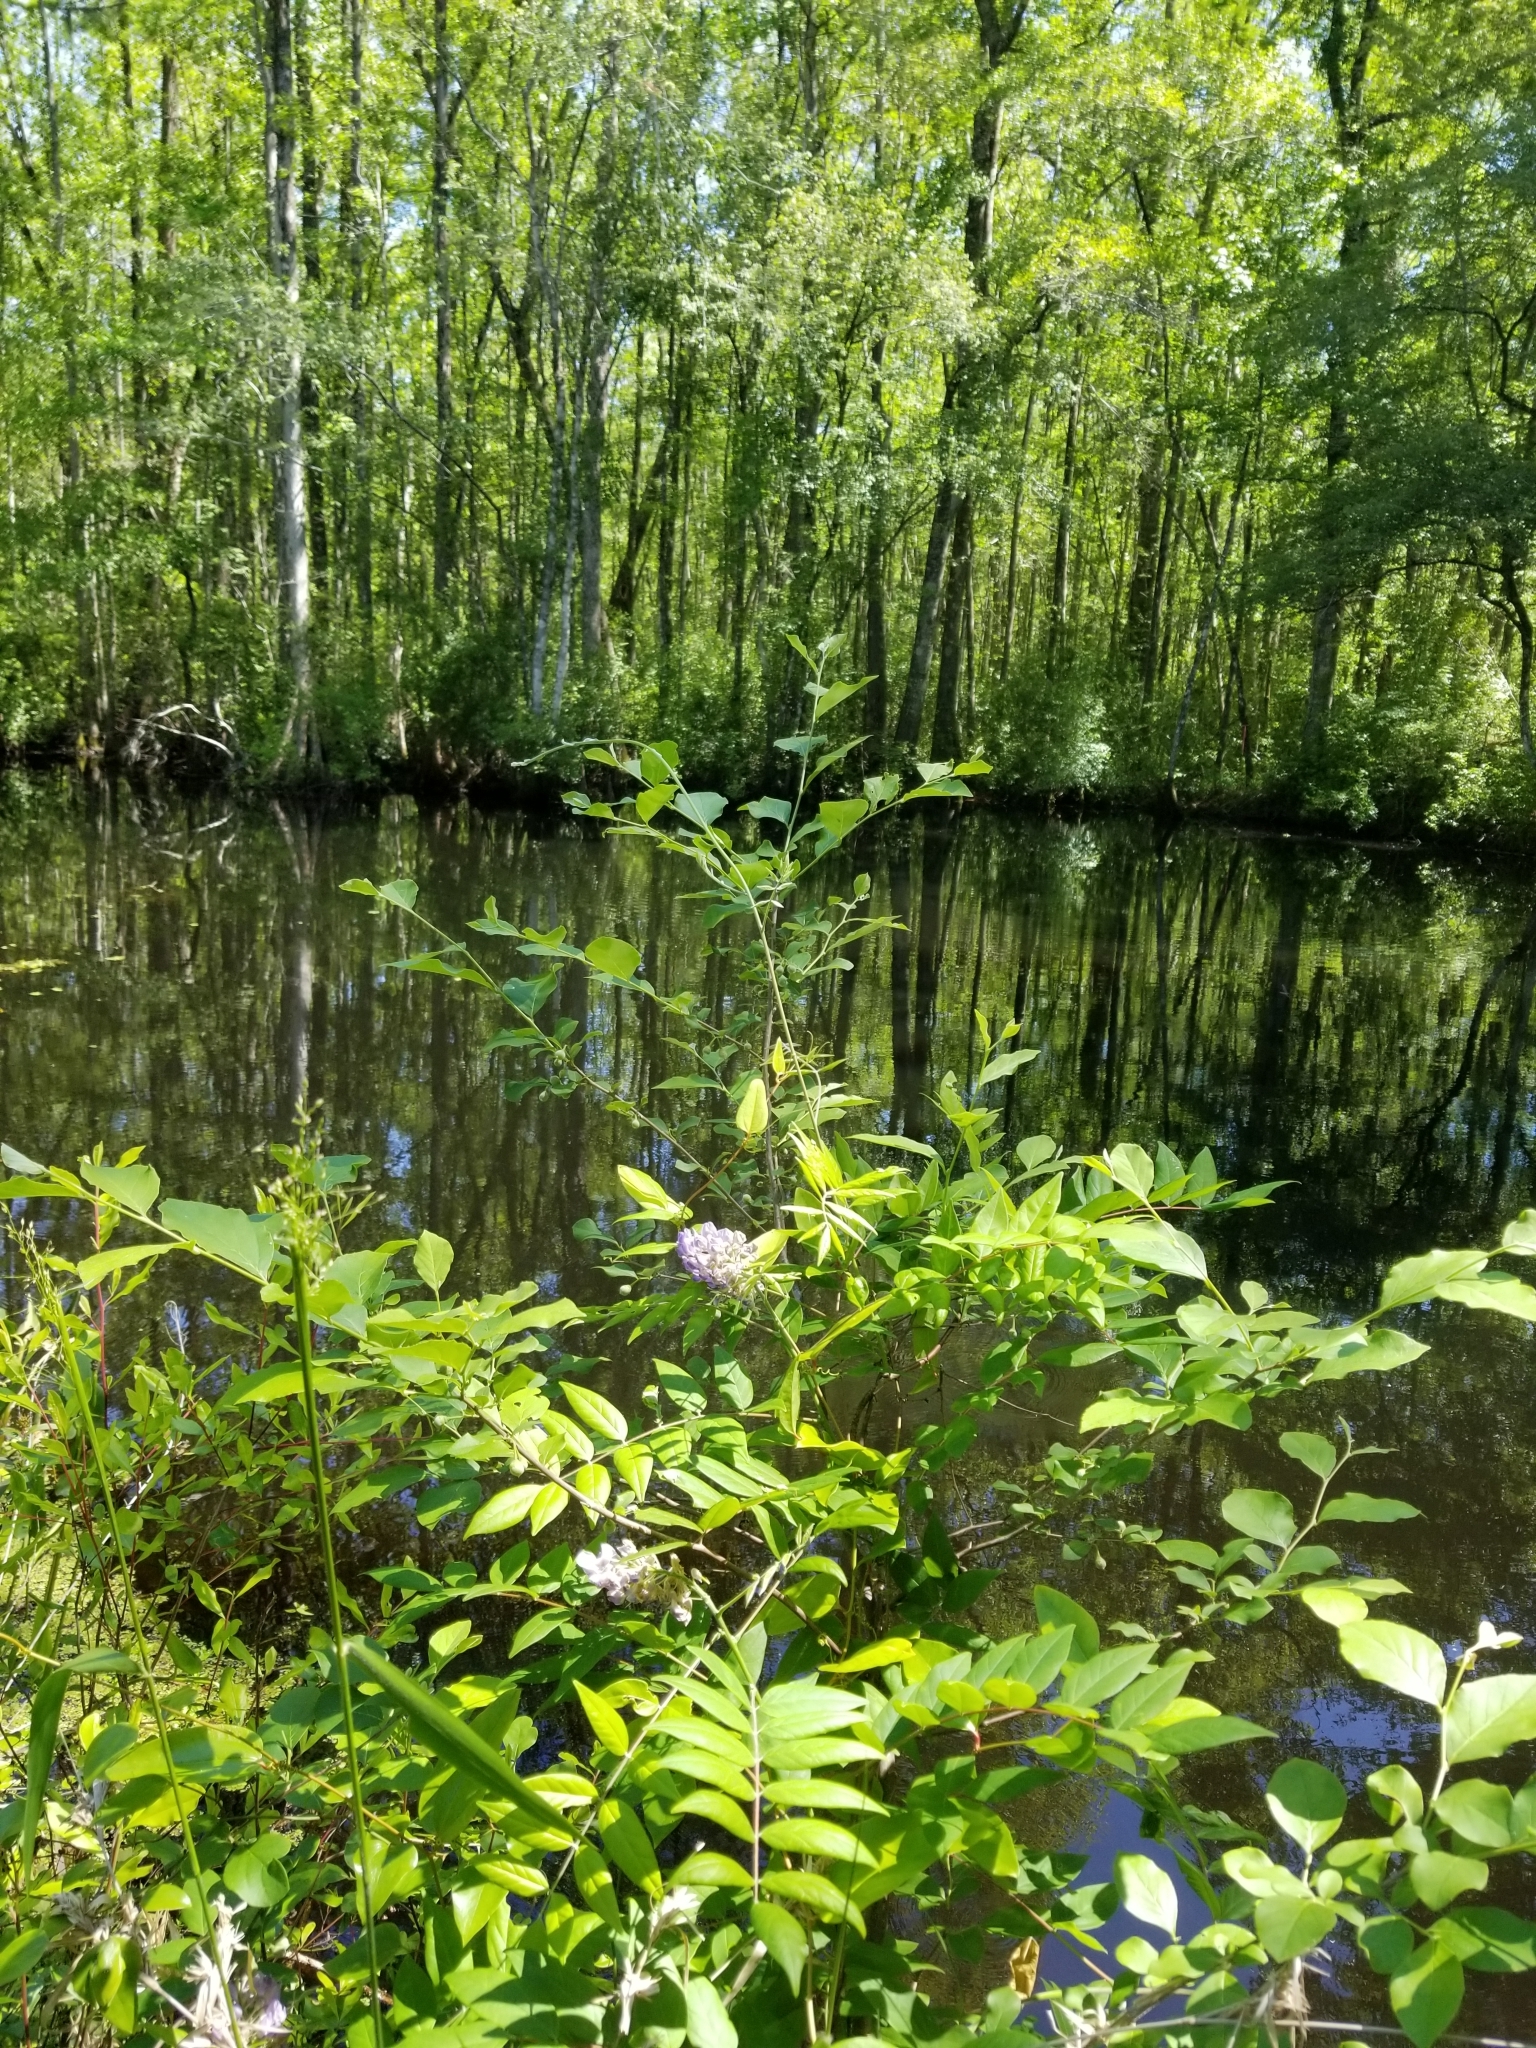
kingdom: Plantae
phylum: Tracheophyta
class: Magnoliopsida
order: Fabales
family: Fabaceae
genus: Wisteria
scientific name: Wisteria frutescens
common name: American wisteria
